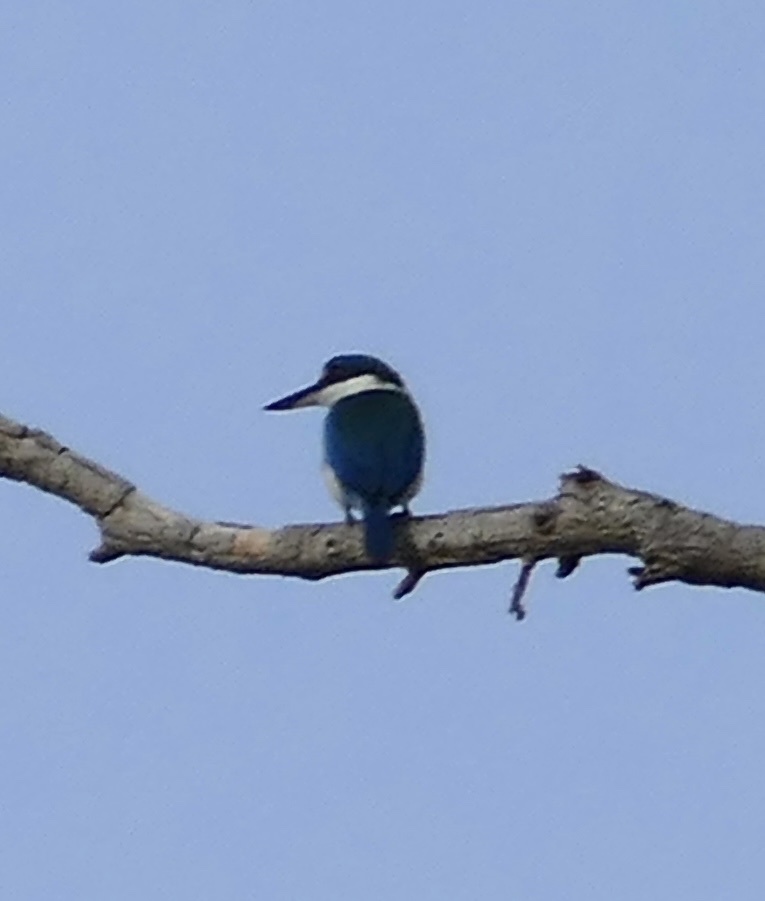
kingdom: Animalia
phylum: Chordata
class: Aves
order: Coraciiformes
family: Alcedinidae
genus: Todiramphus
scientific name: Todiramphus chloris
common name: Collared kingfisher
